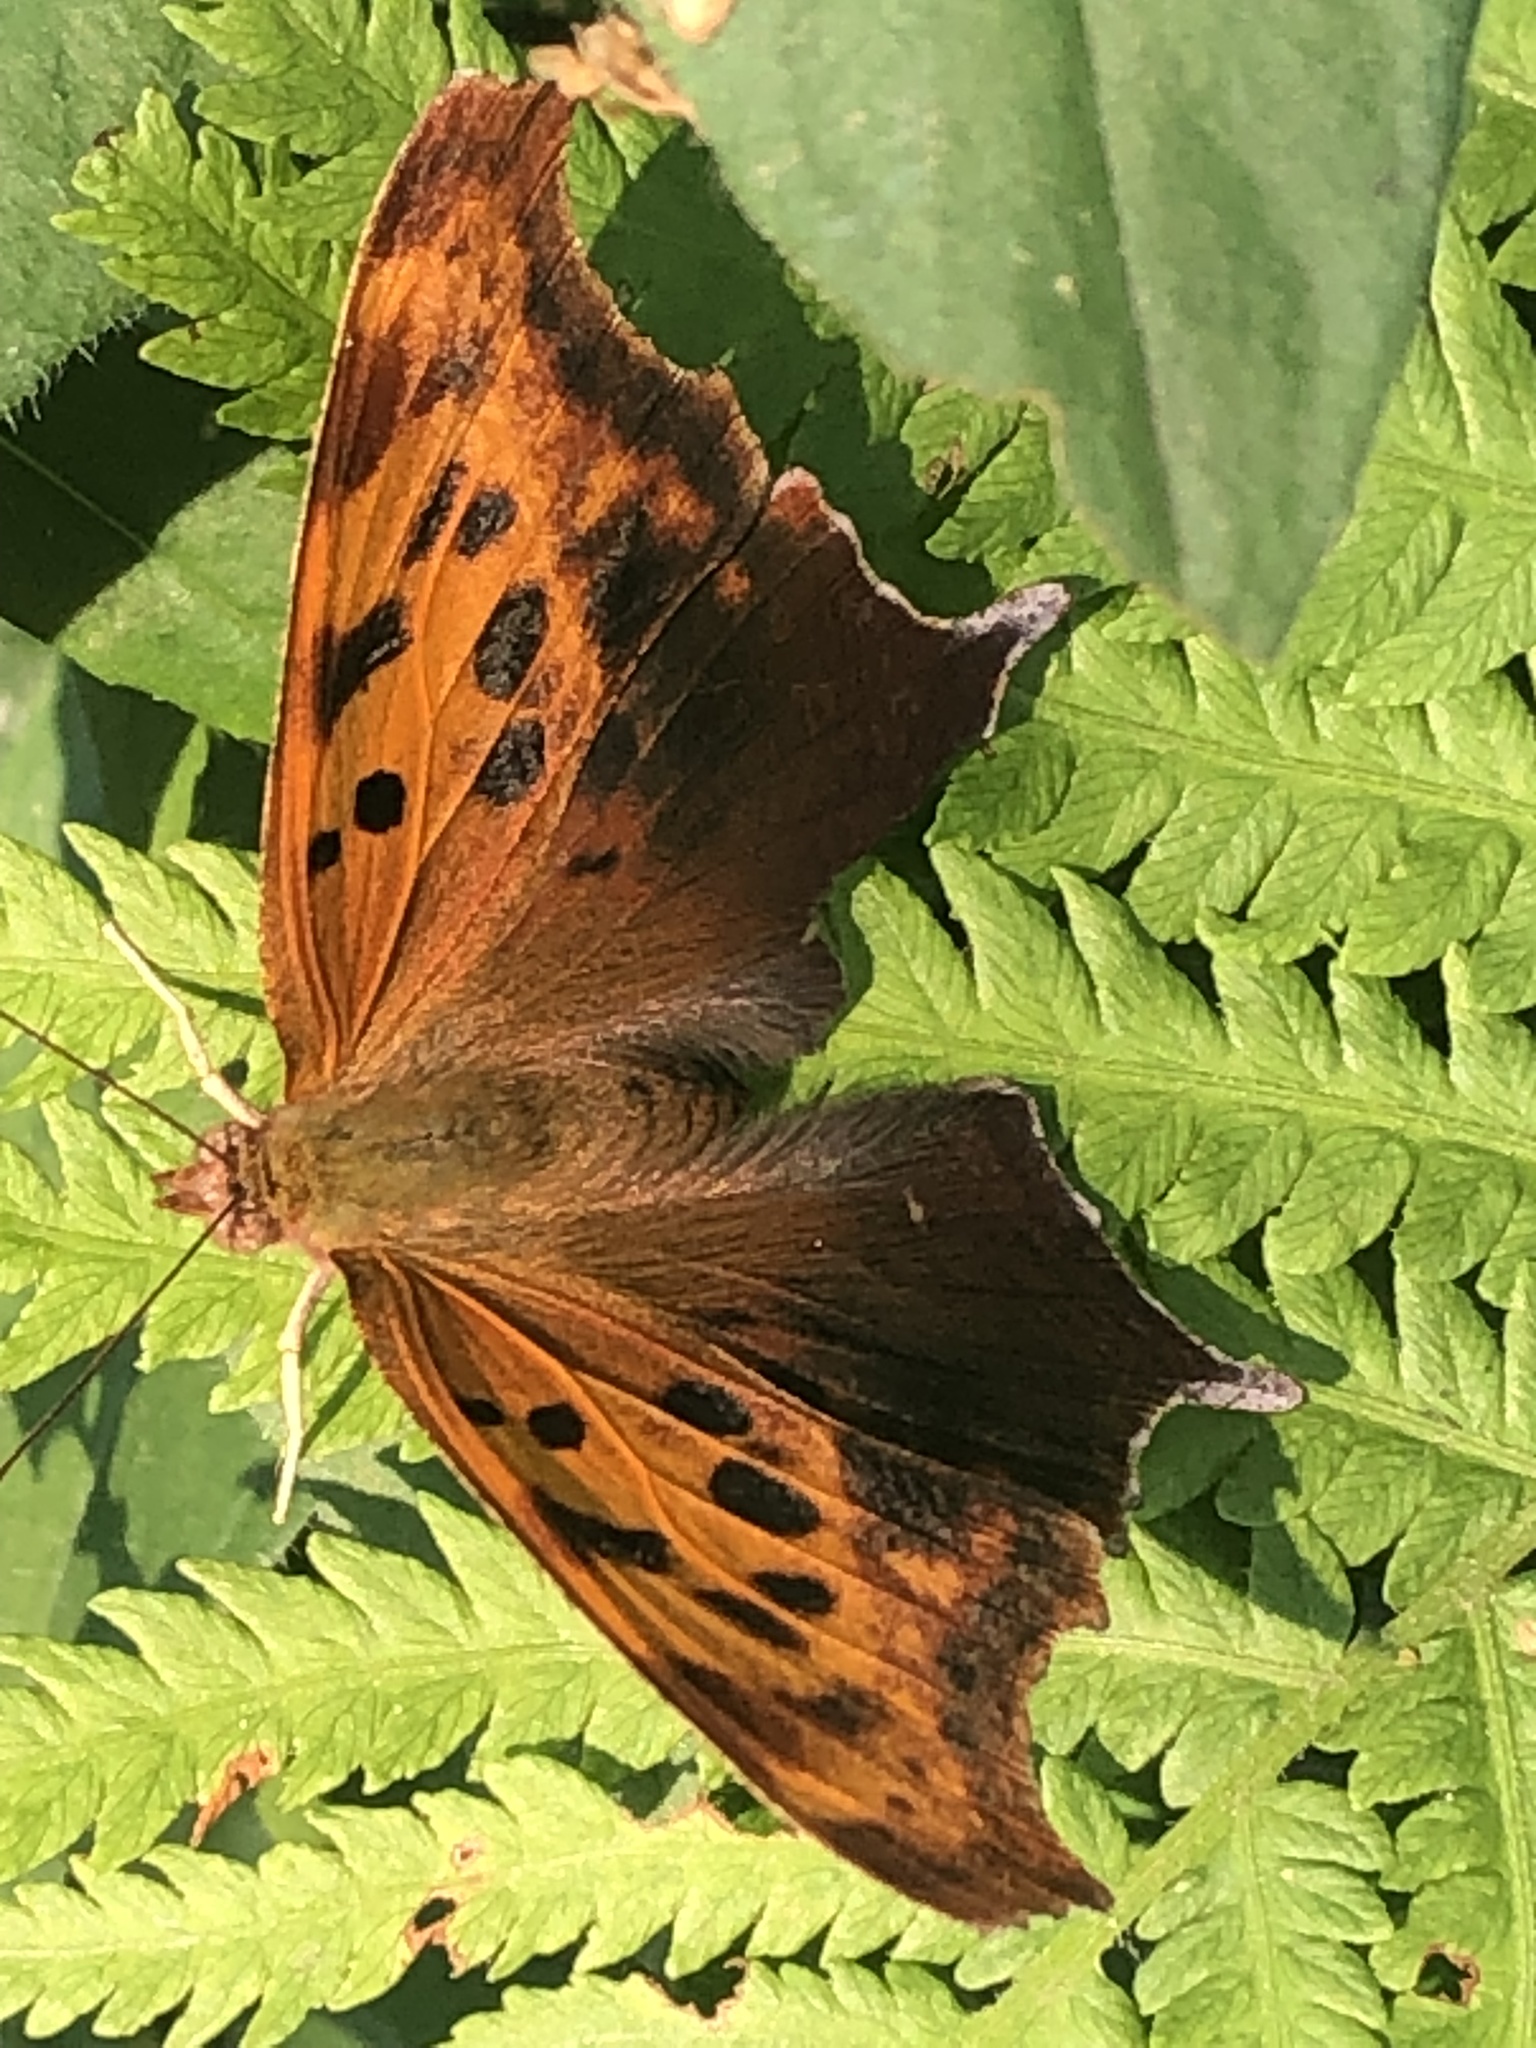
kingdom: Animalia
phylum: Arthropoda
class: Insecta
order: Lepidoptera
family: Nymphalidae
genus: Polygonia
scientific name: Polygonia interrogationis
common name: Question mark
